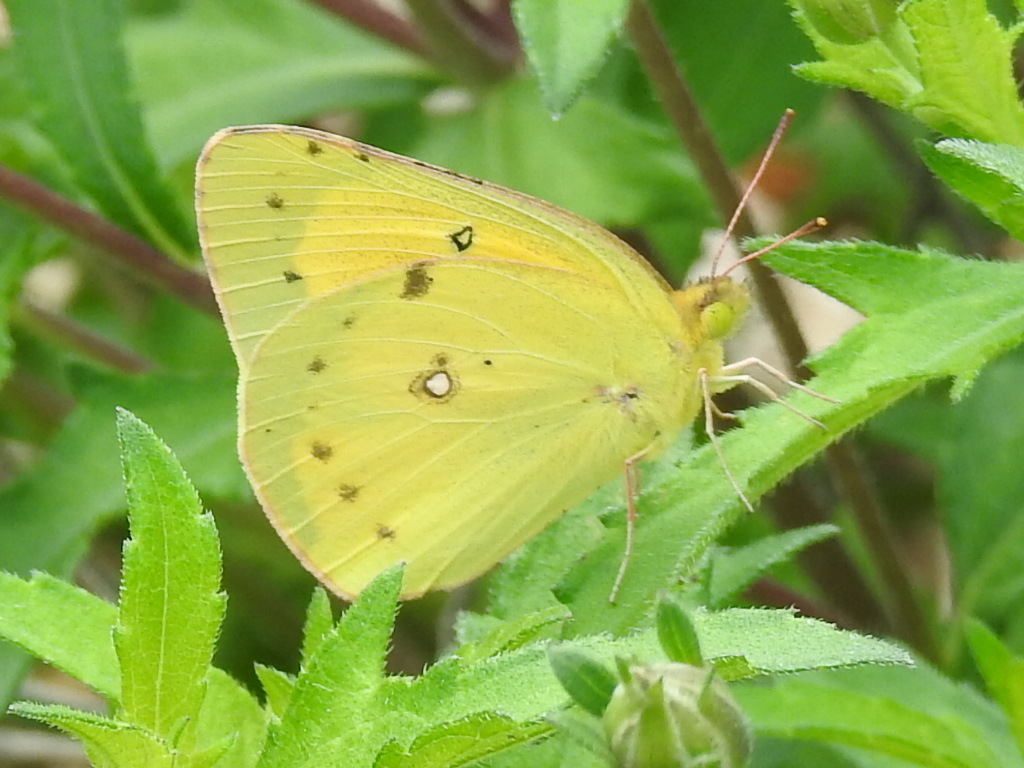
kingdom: Animalia
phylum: Arthropoda
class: Insecta
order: Lepidoptera
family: Pieridae
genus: Colias
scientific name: Colias eurytheme
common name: Alfalfa butterfly
